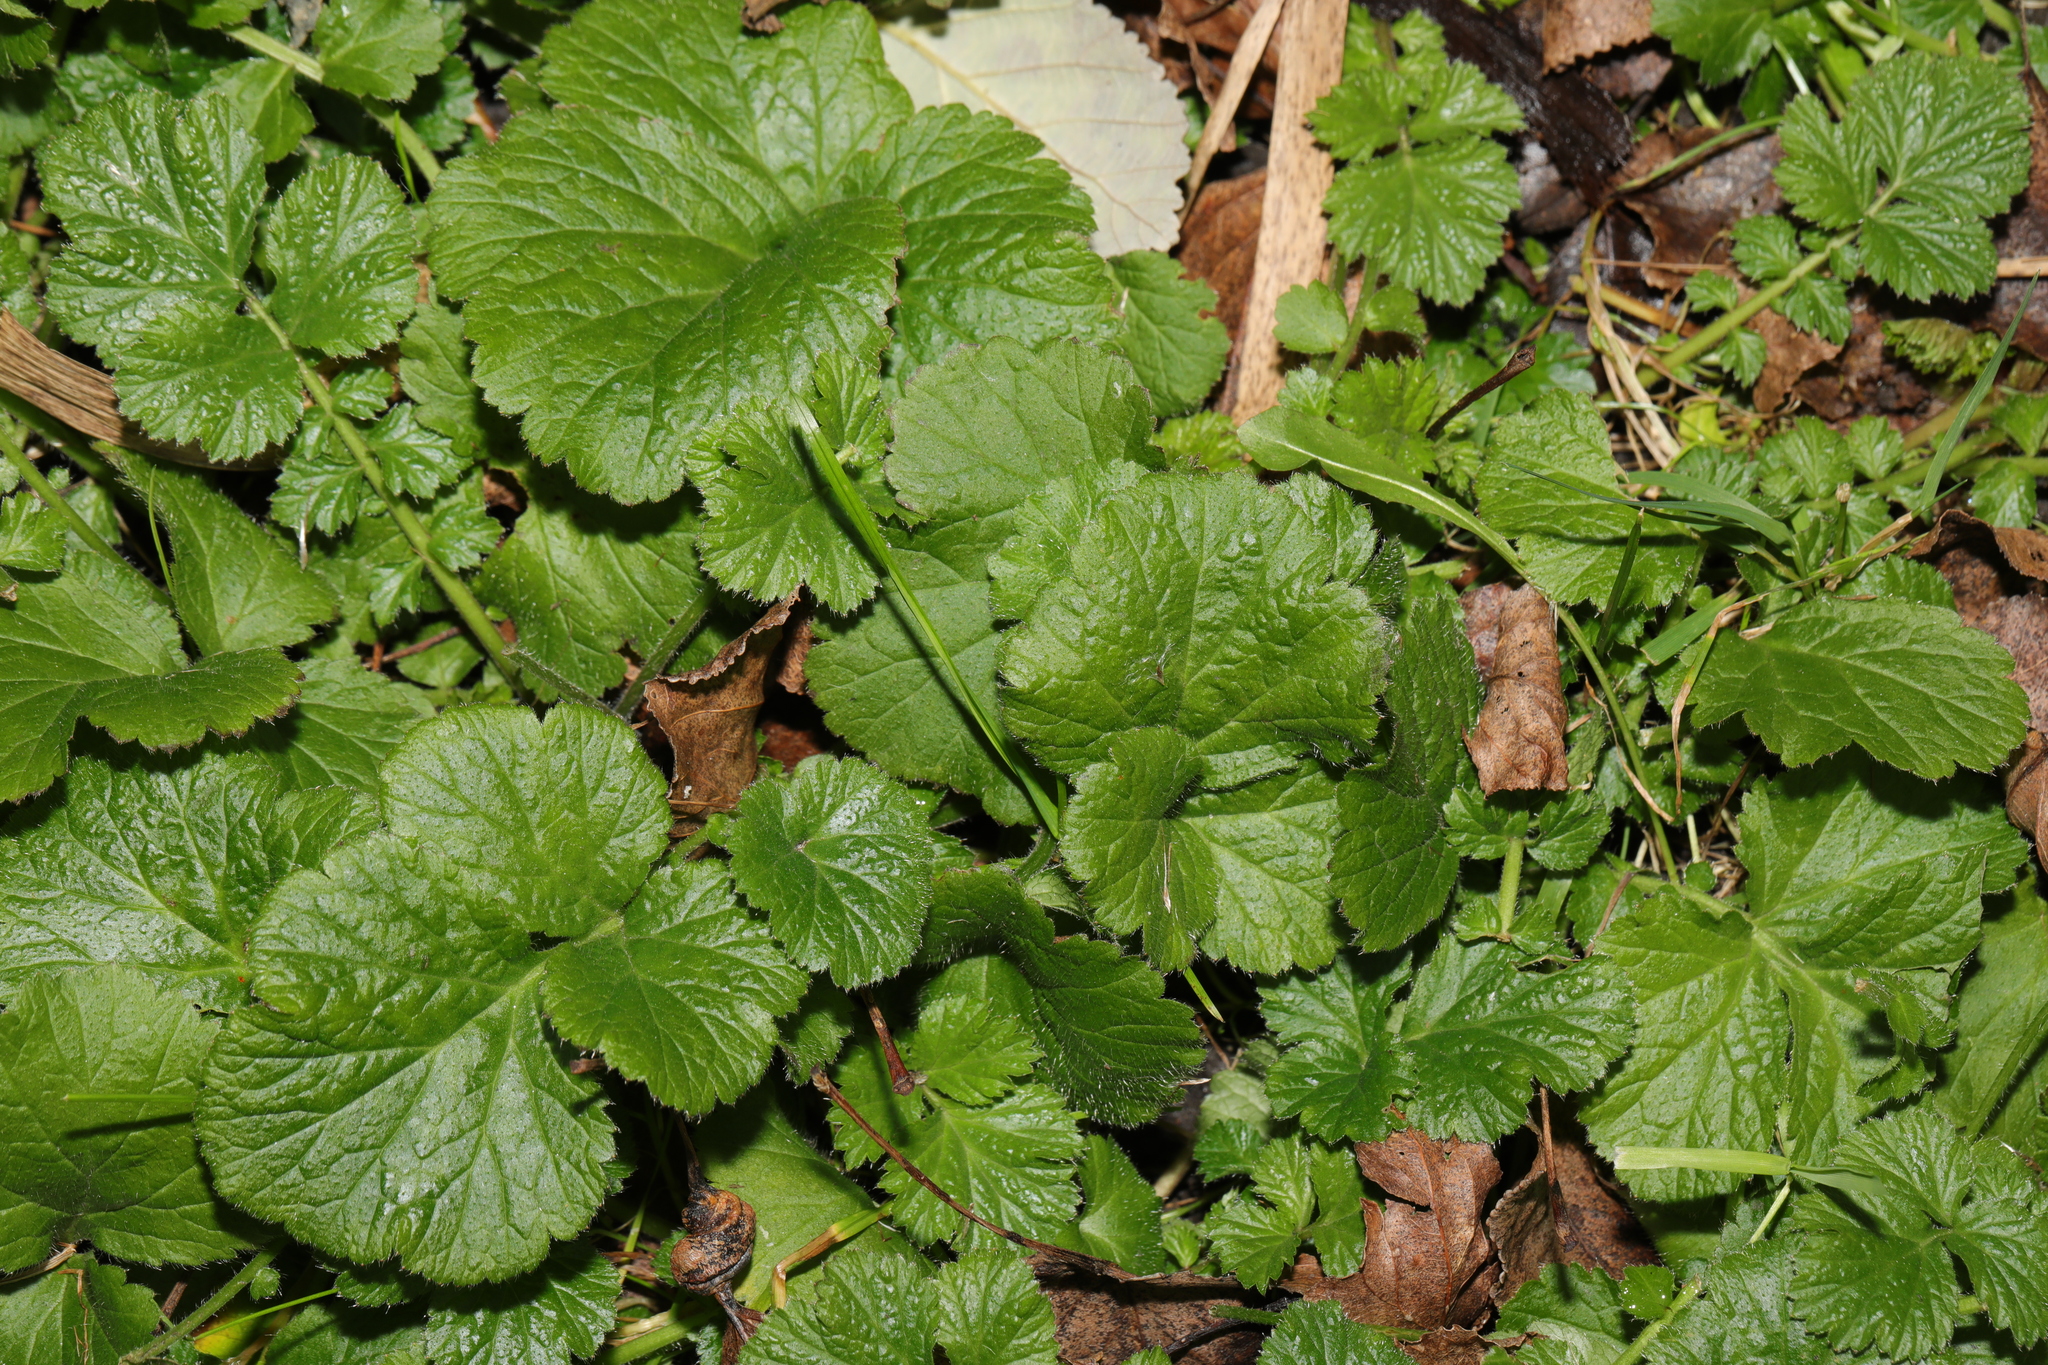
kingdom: Plantae
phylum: Tracheophyta
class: Magnoliopsida
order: Rosales
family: Rosaceae
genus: Geum
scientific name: Geum urbanum
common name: Wood avens
